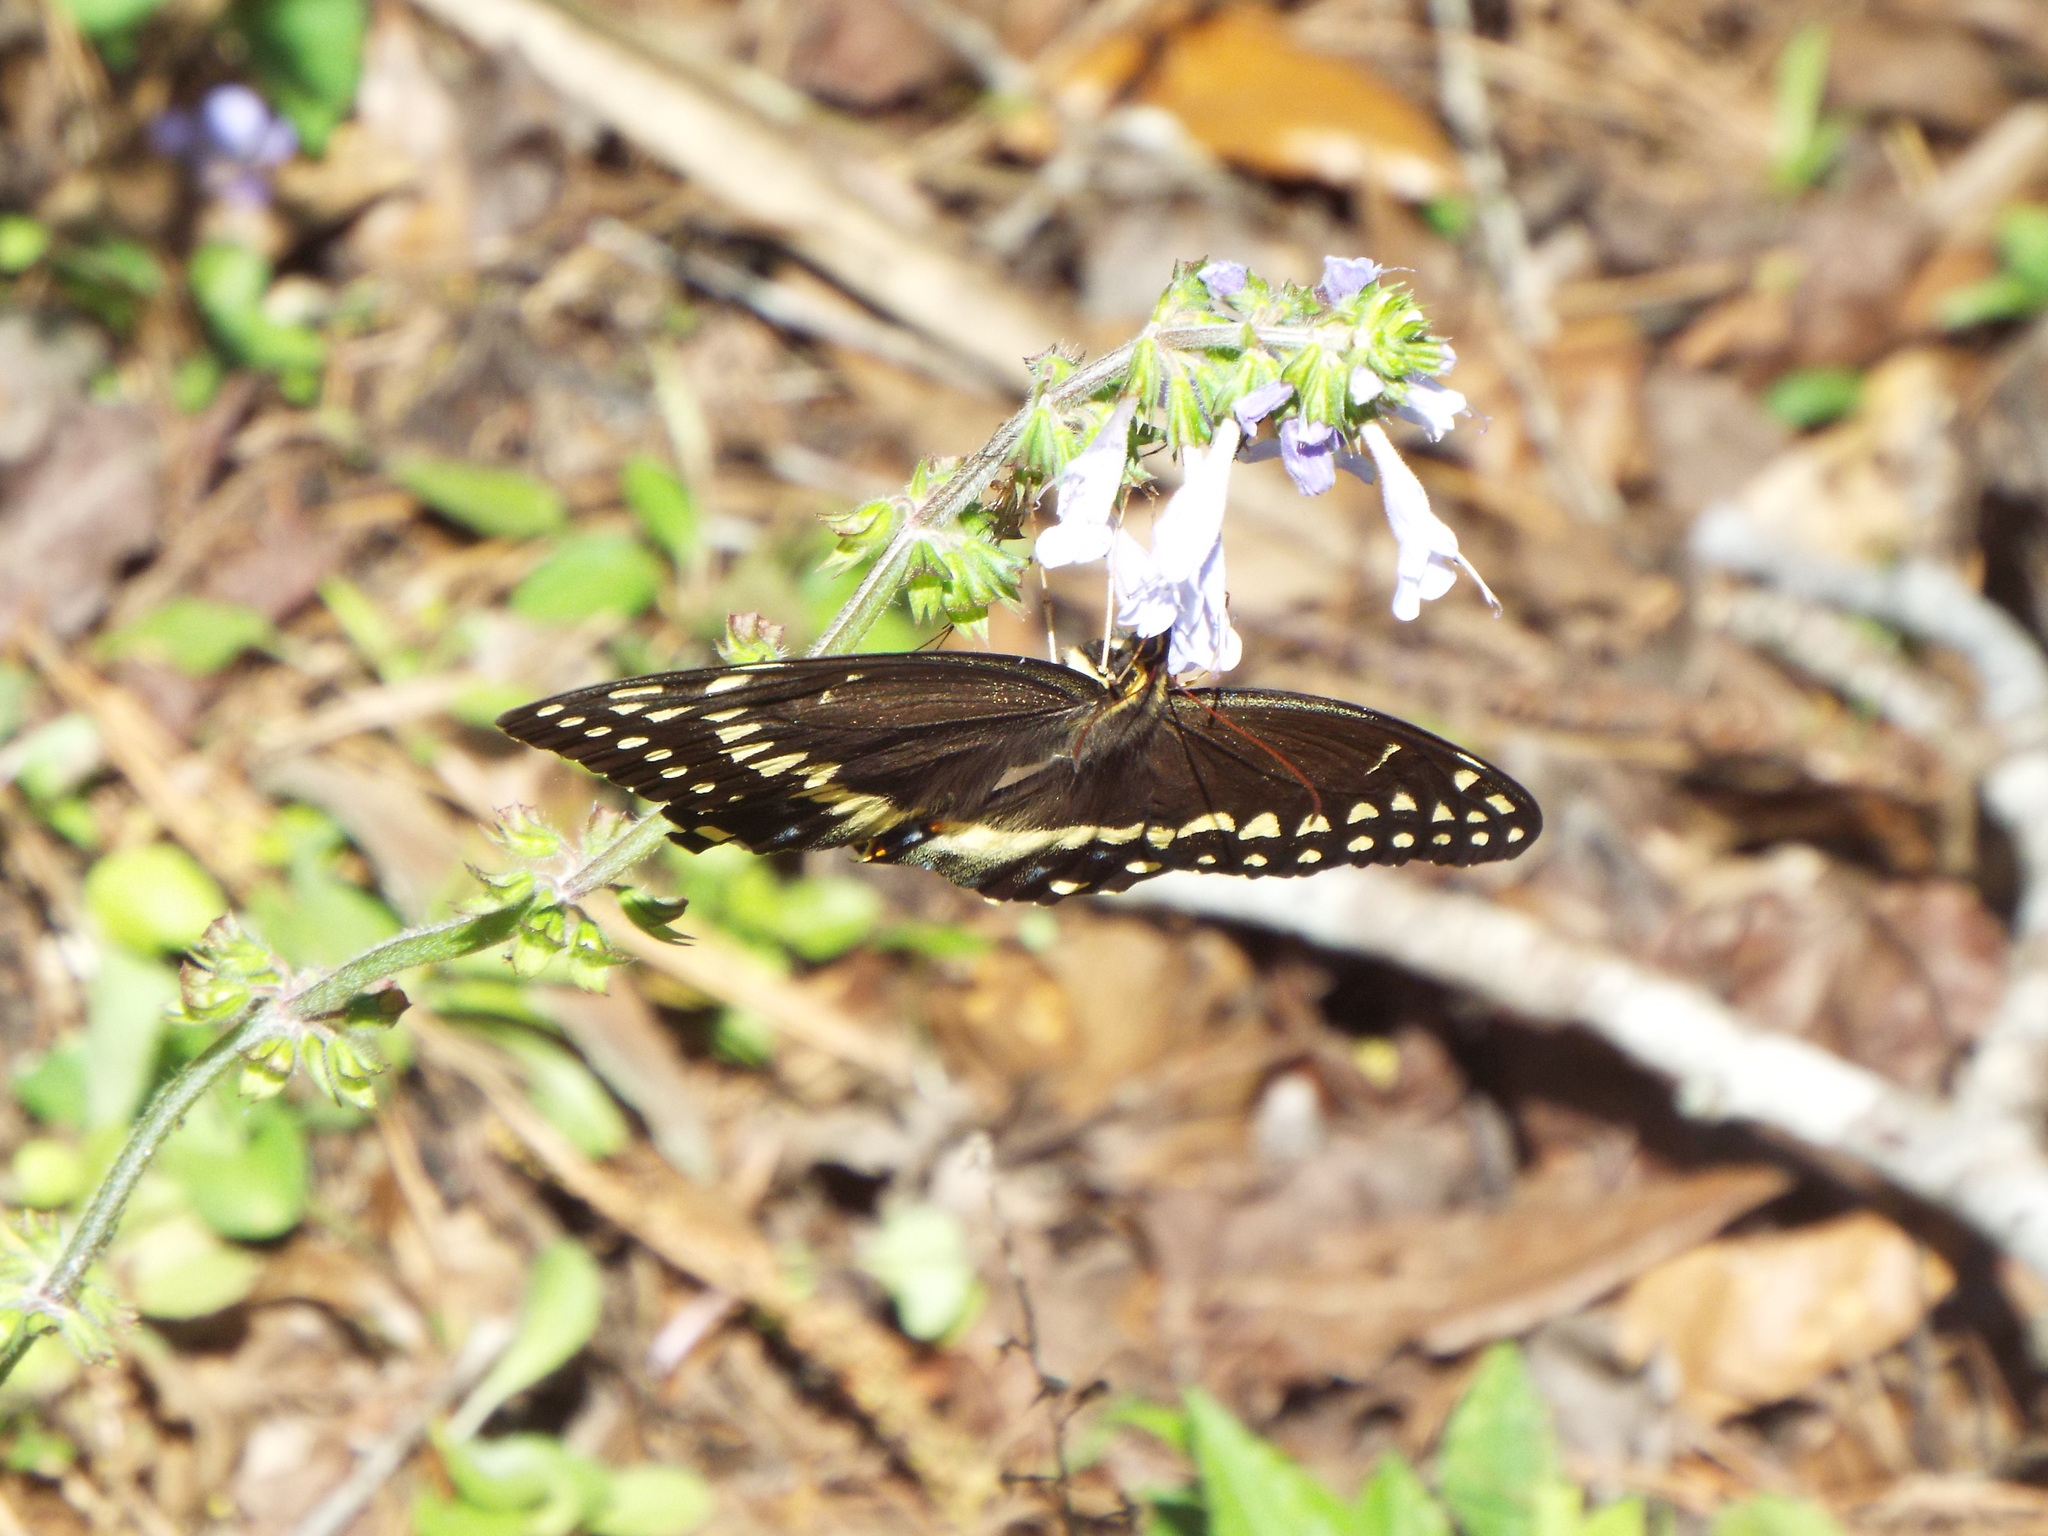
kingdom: Animalia
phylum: Arthropoda
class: Insecta
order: Lepidoptera
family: Papilionidae
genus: Papilio
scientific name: Papilio palamedes
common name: Palamedes swallowtail
